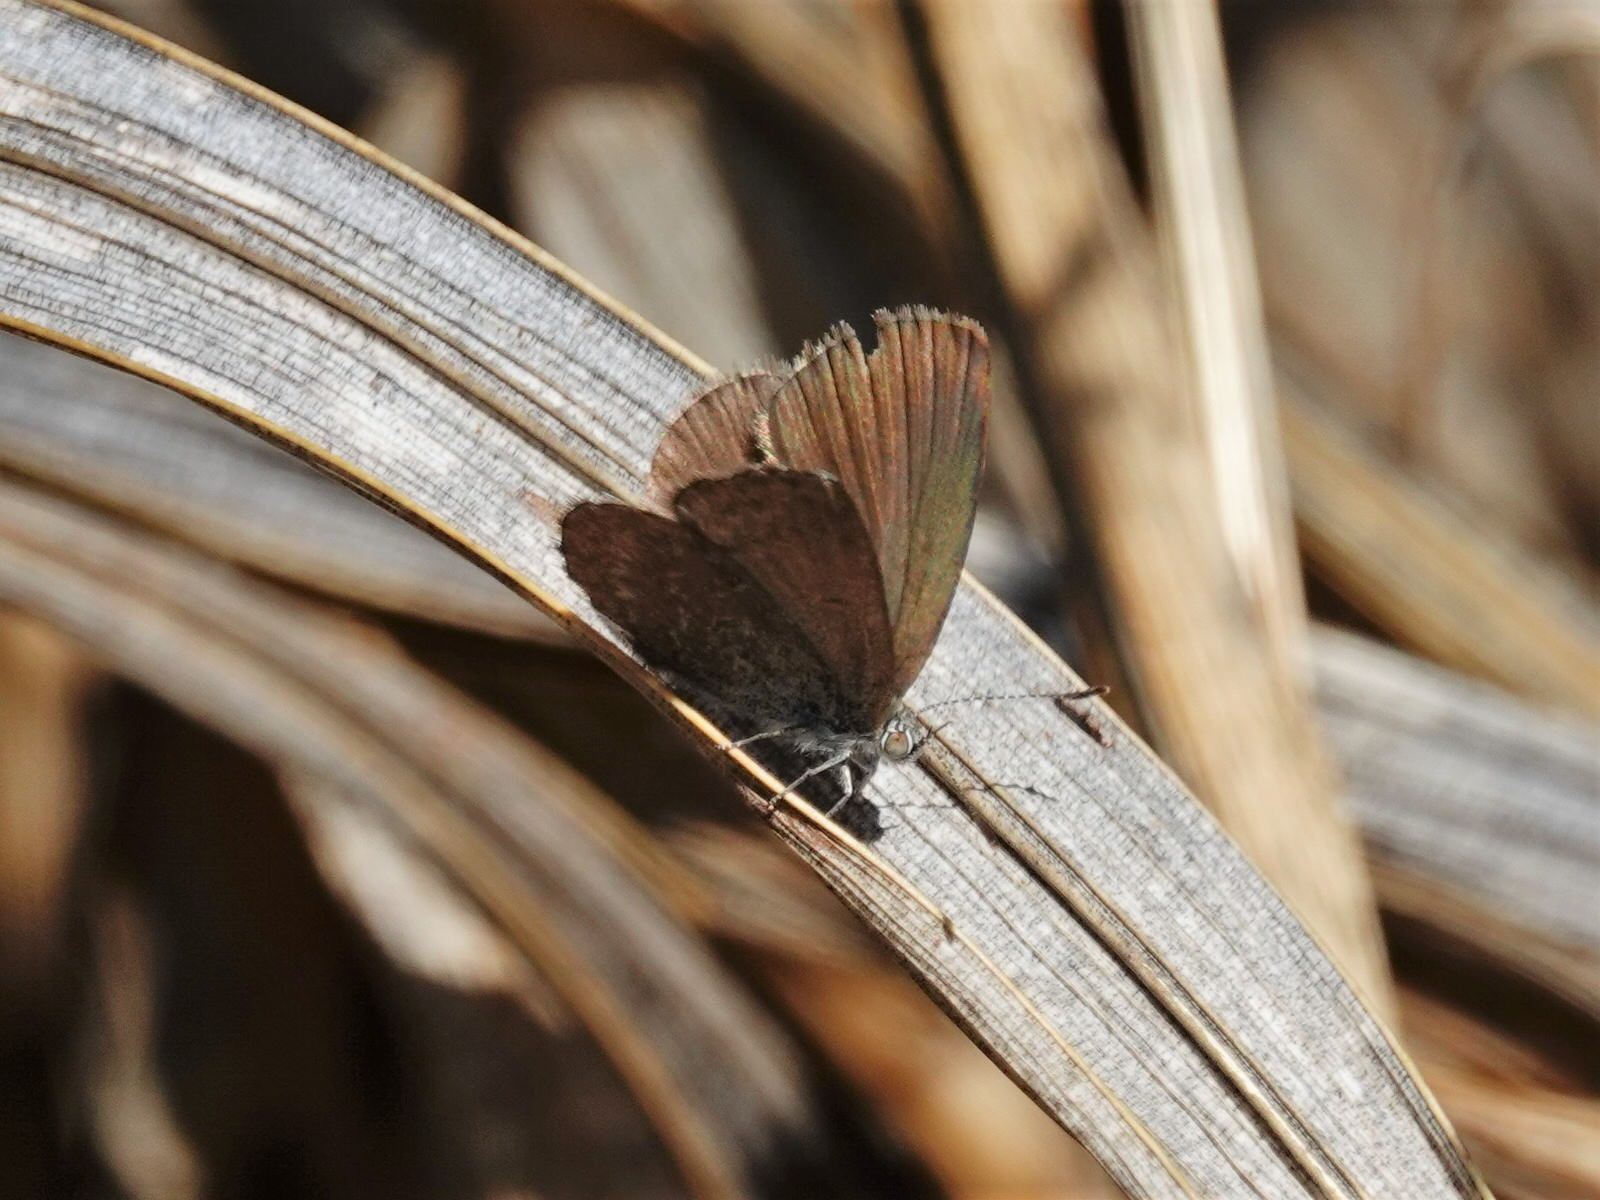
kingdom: Animalia
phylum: Arthropoda
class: Insecta
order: Lepidoptera
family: Lycaenidae
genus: Zizina
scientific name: Zizina labradus
